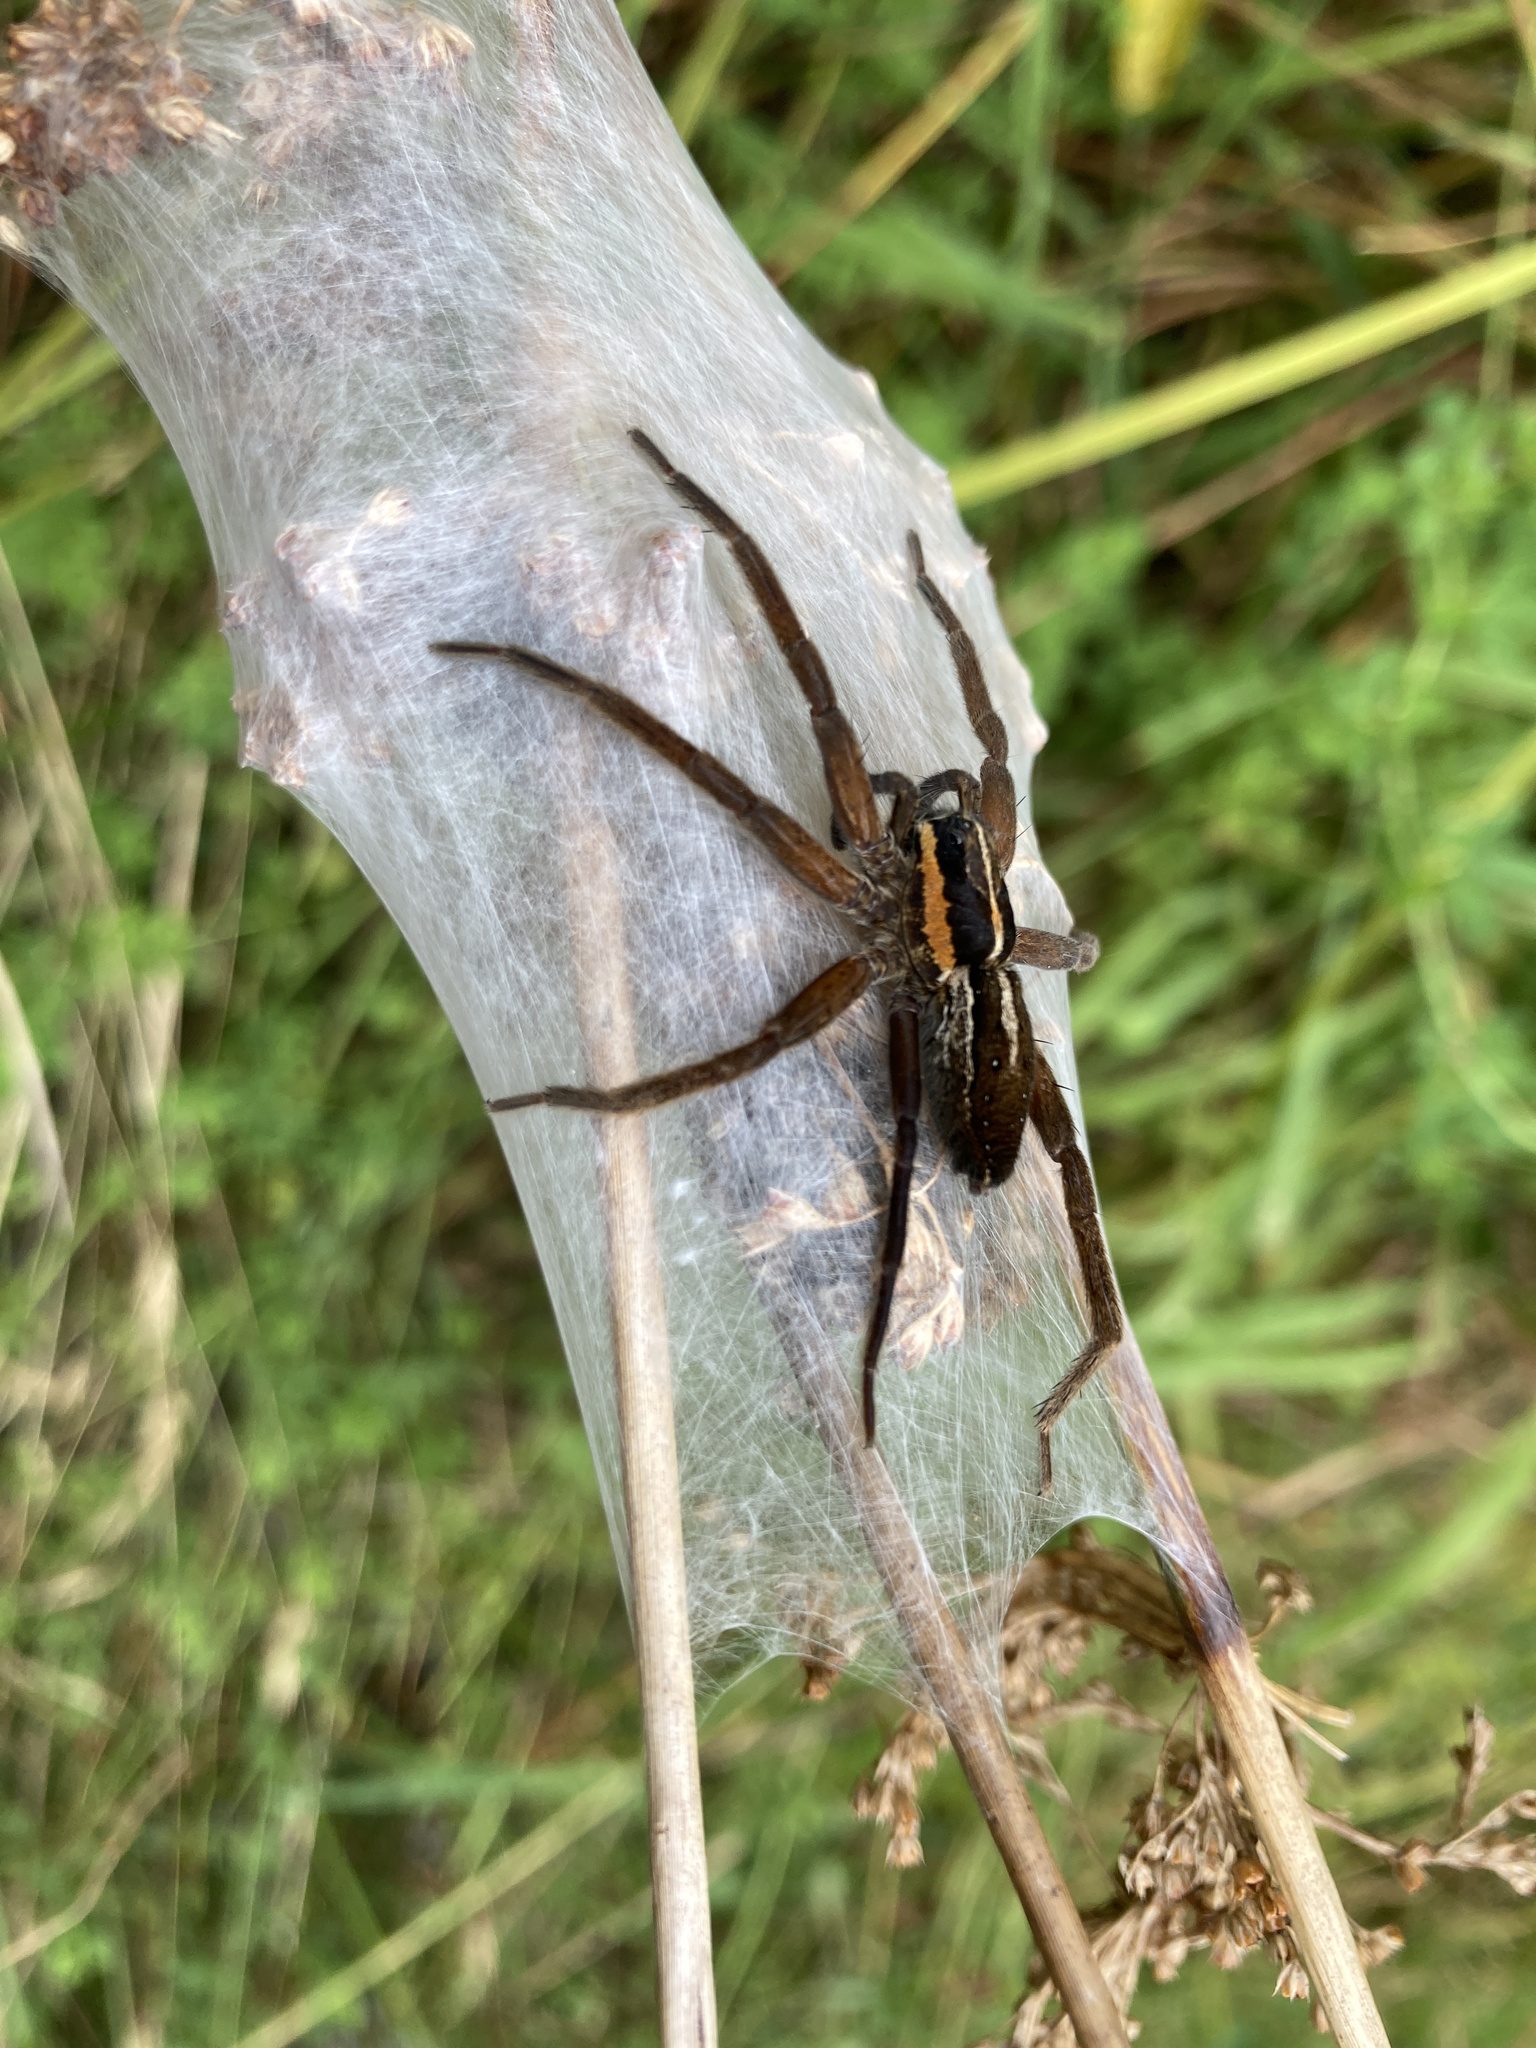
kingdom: Animalia
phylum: Arthropoda
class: Arachnida
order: Araneae
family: Pisauridae
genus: Dolomedes
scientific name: Dolomedes minor
